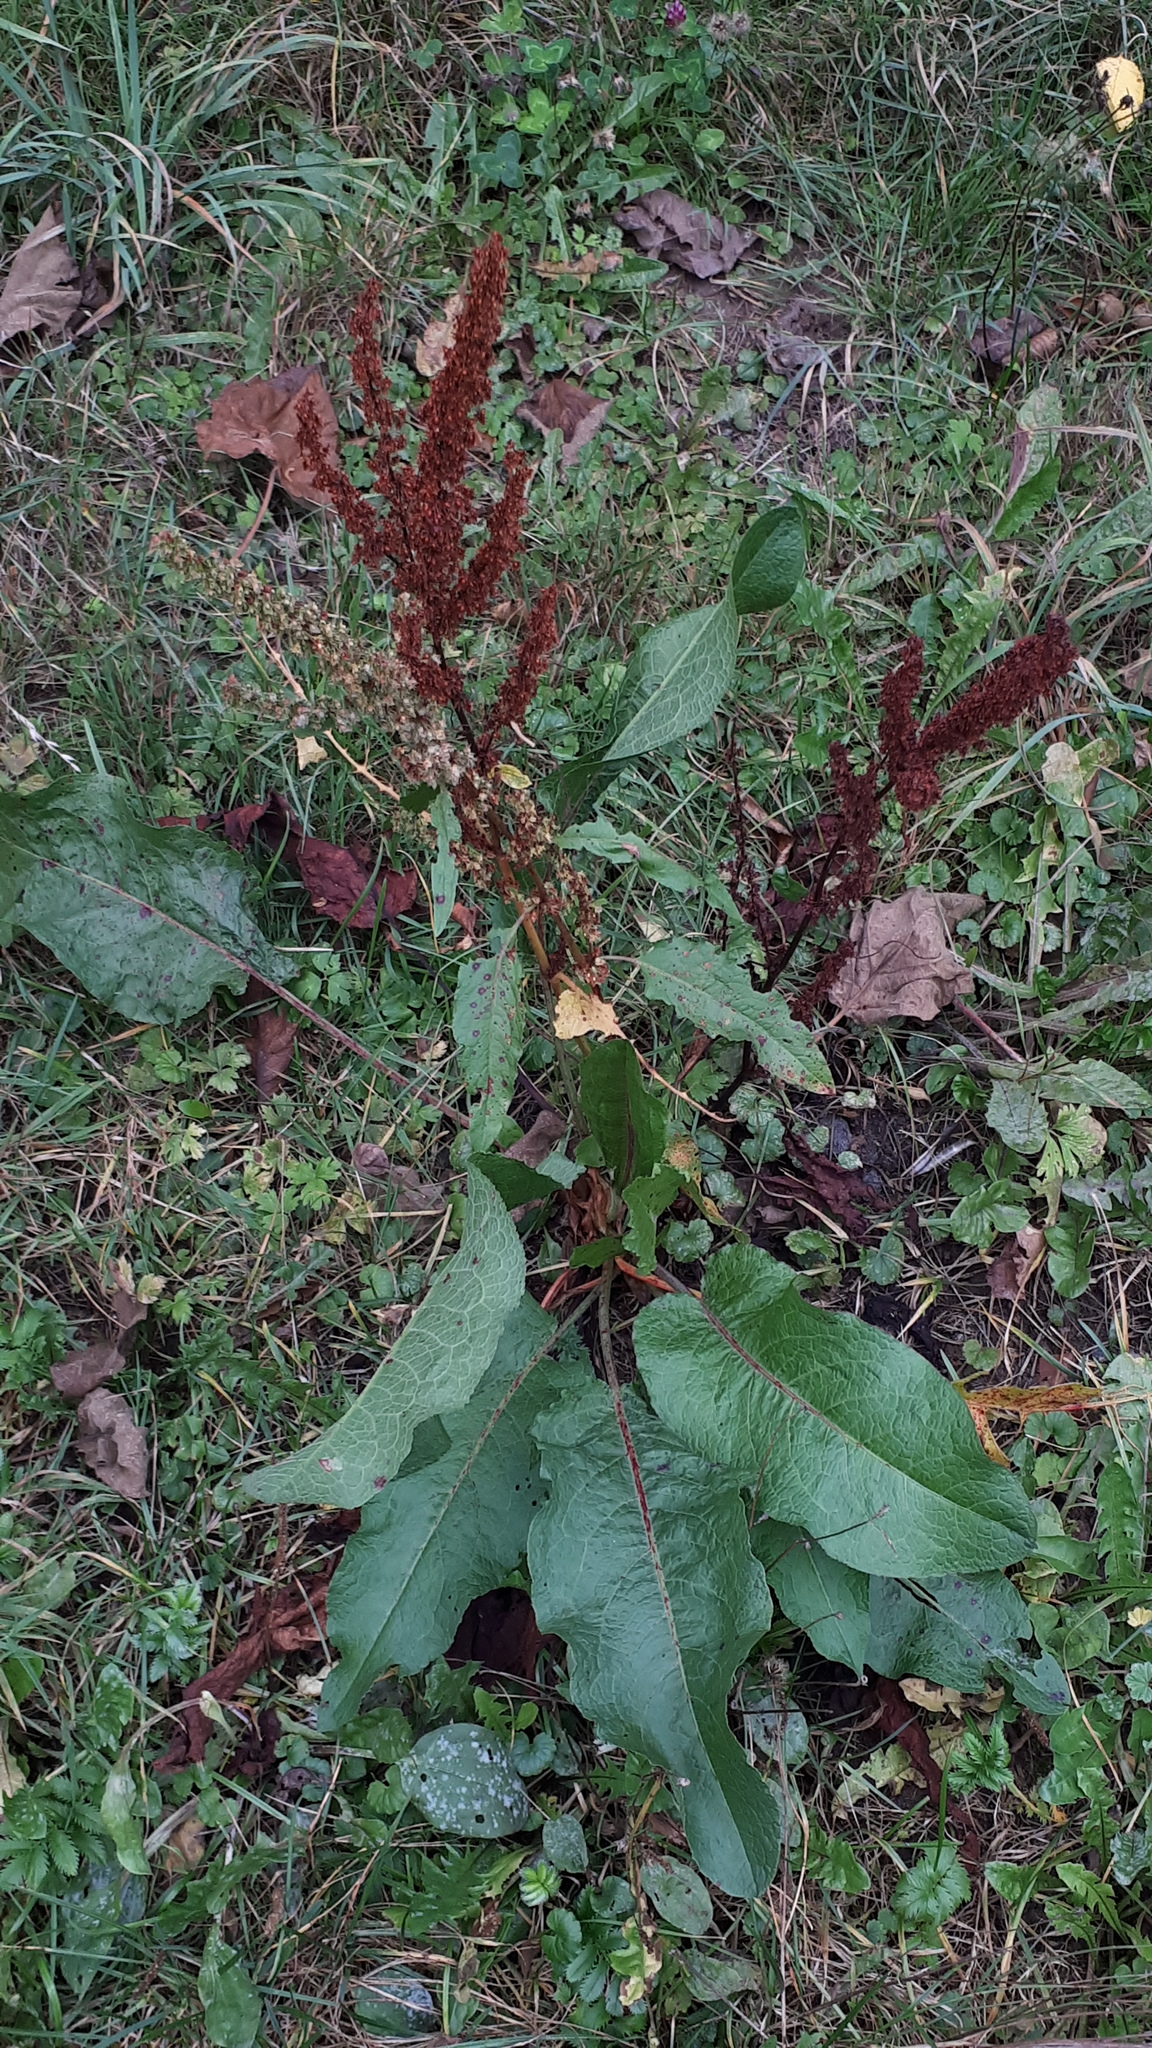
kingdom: Plantae
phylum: Tracheophyta
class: Magnoliopsida
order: Caryophyllales
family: Polygonaceae
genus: Rumex
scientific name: Rumex obtusifolius
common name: Bitter dock
